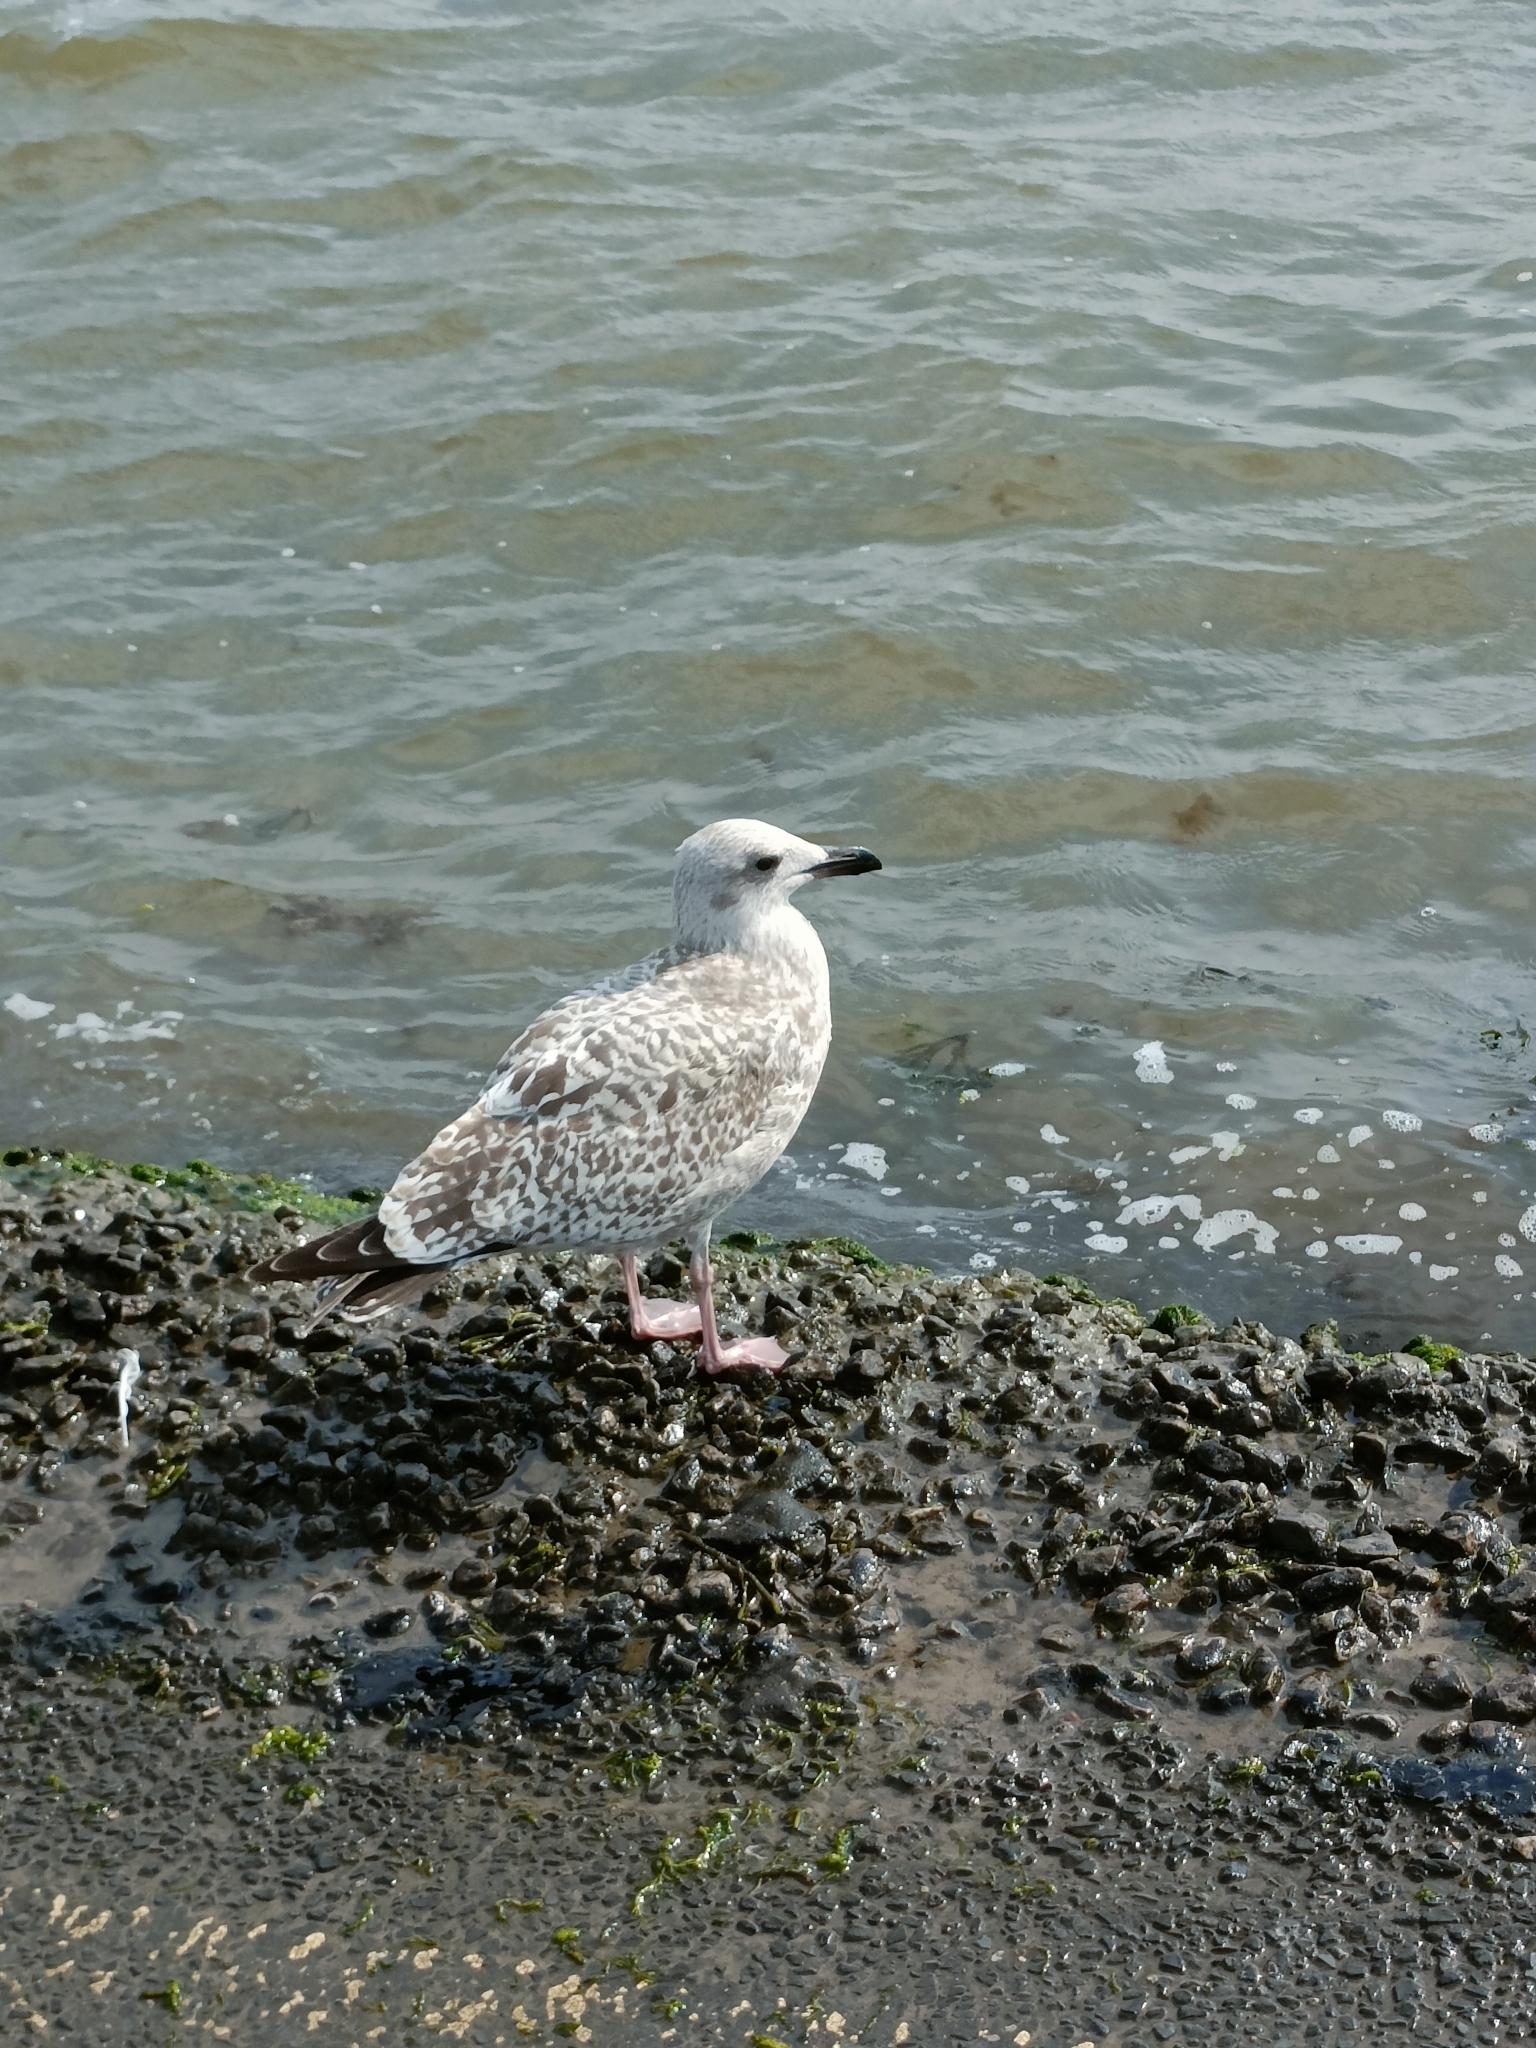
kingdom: Animalia
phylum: Chordata
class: Aves
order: Charadriiformes
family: Laridae
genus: Larus
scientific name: Larus argentatus
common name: Herring gull
